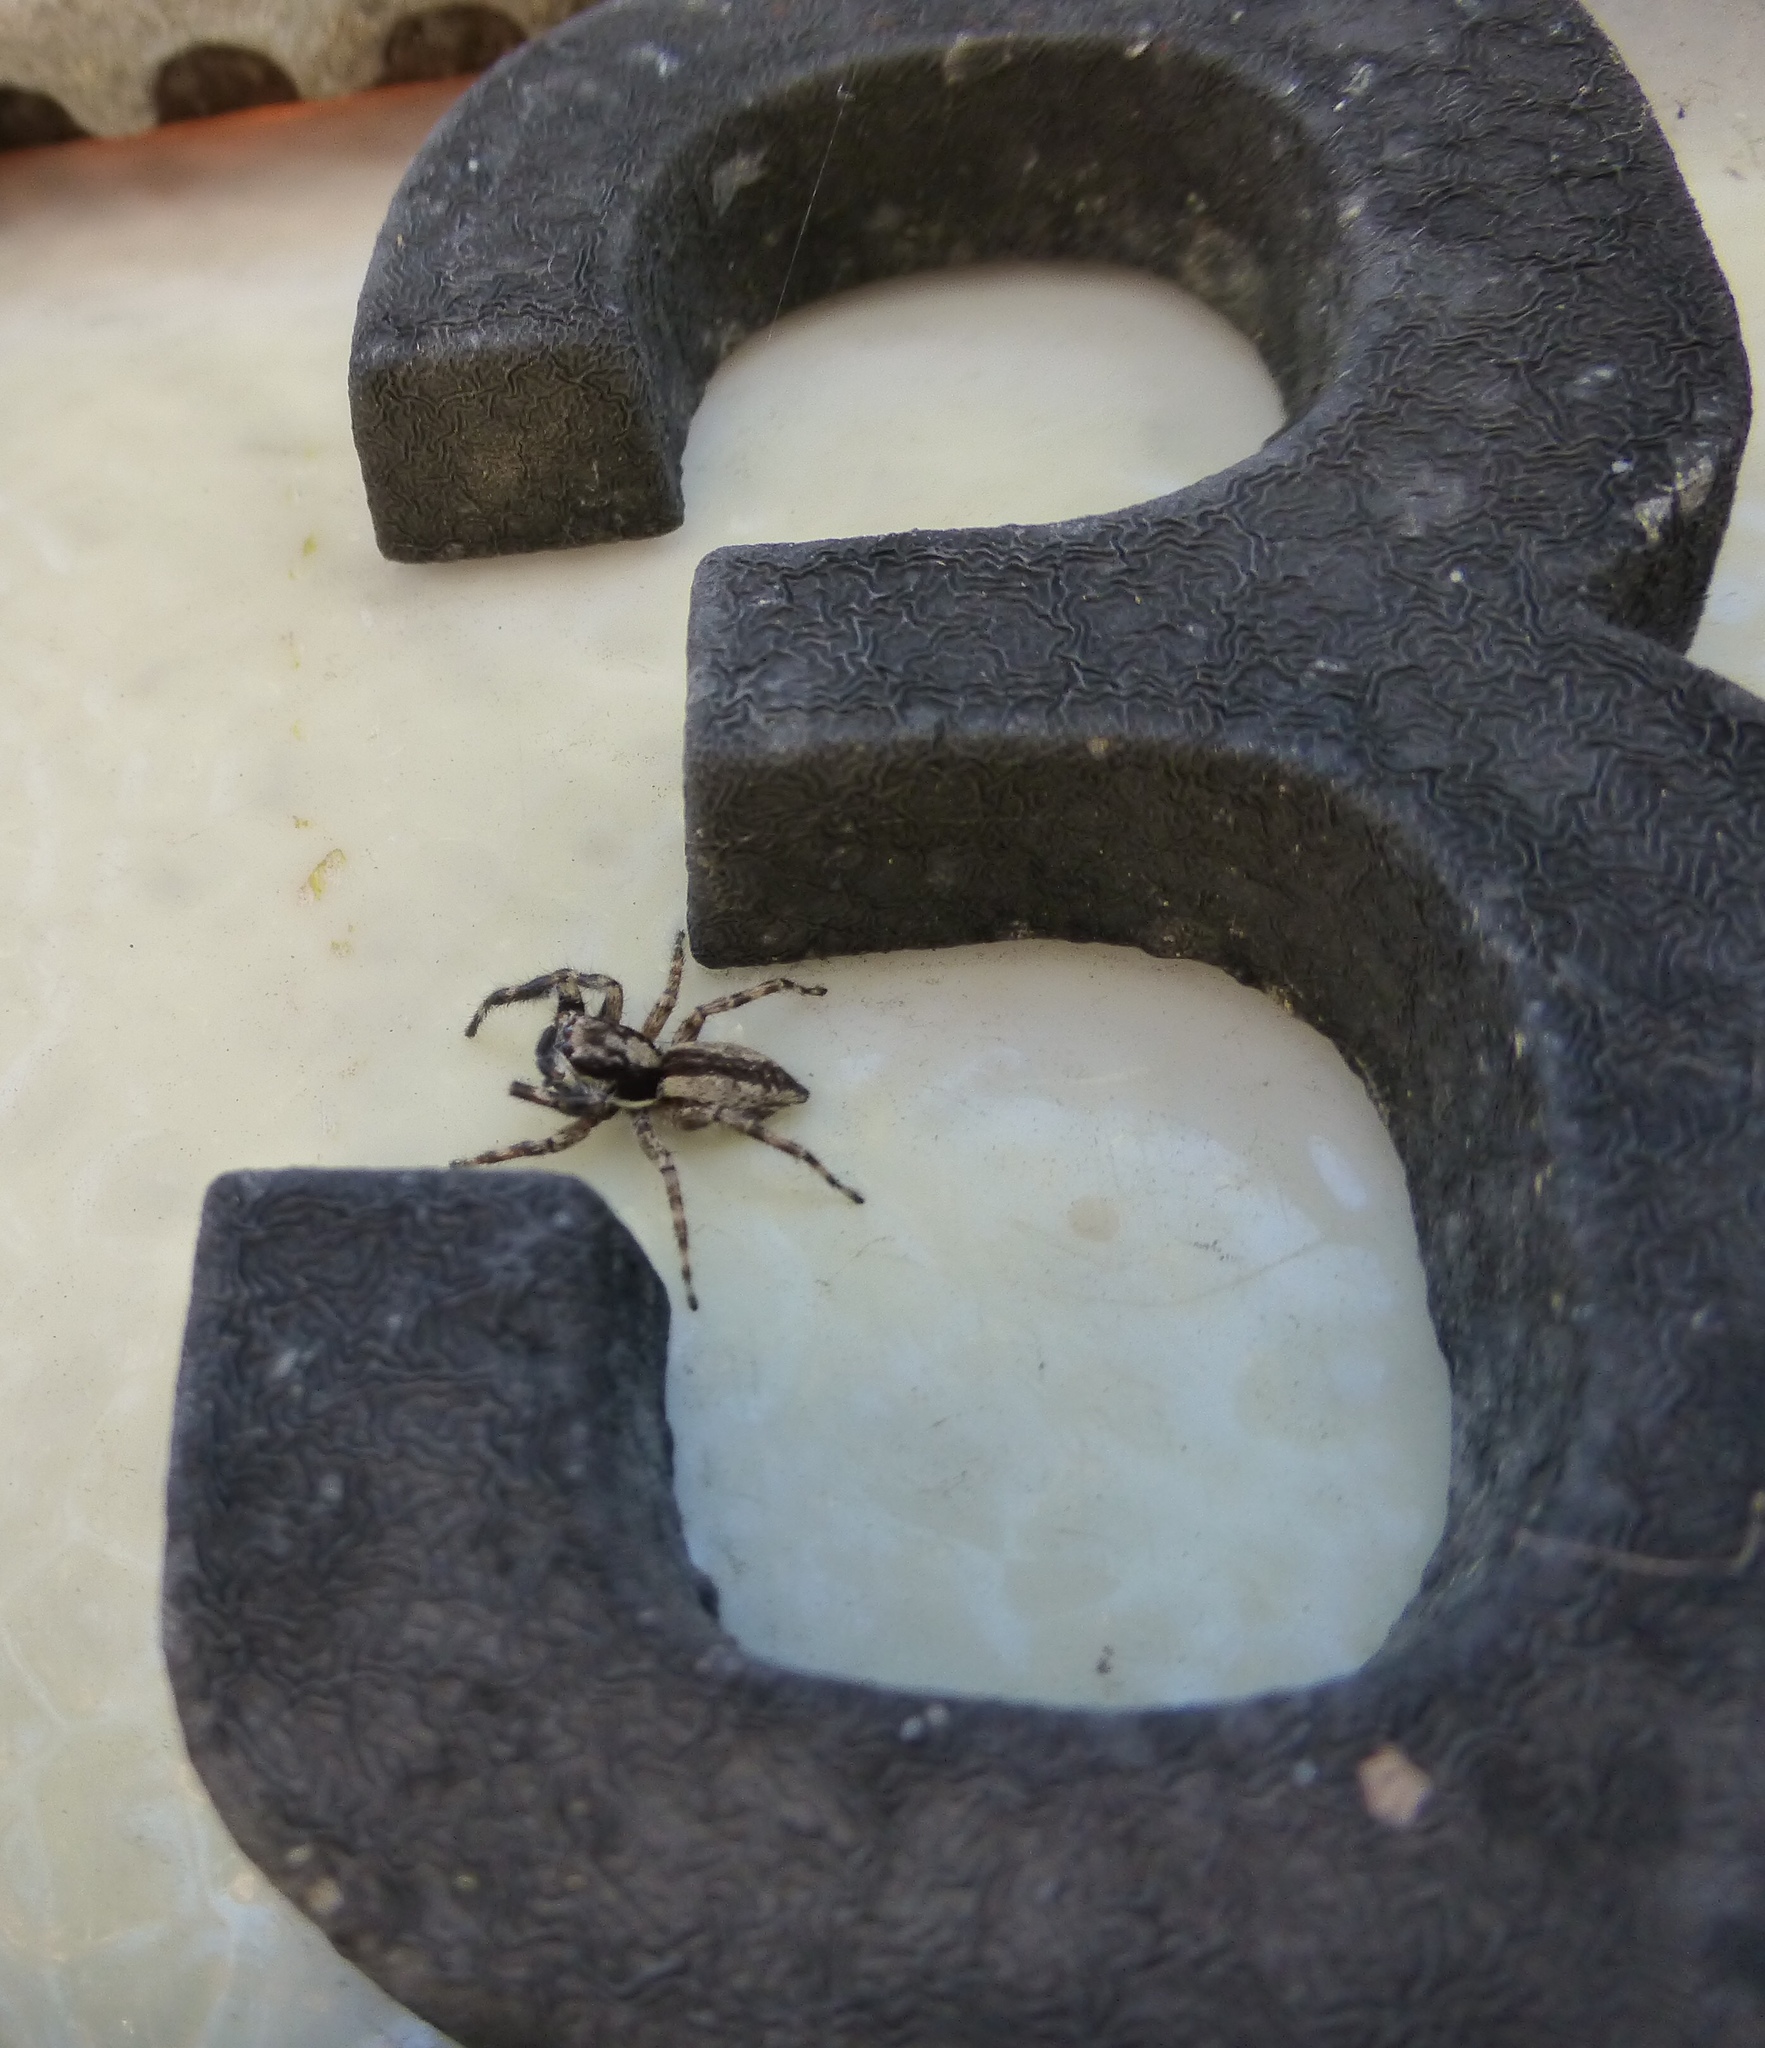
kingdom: Animalia
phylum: Arthropoda
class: Arachnida
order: Araneae
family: Salticidae
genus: Menemerus
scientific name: Menemerus bivittatus
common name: Gray wall jumper
